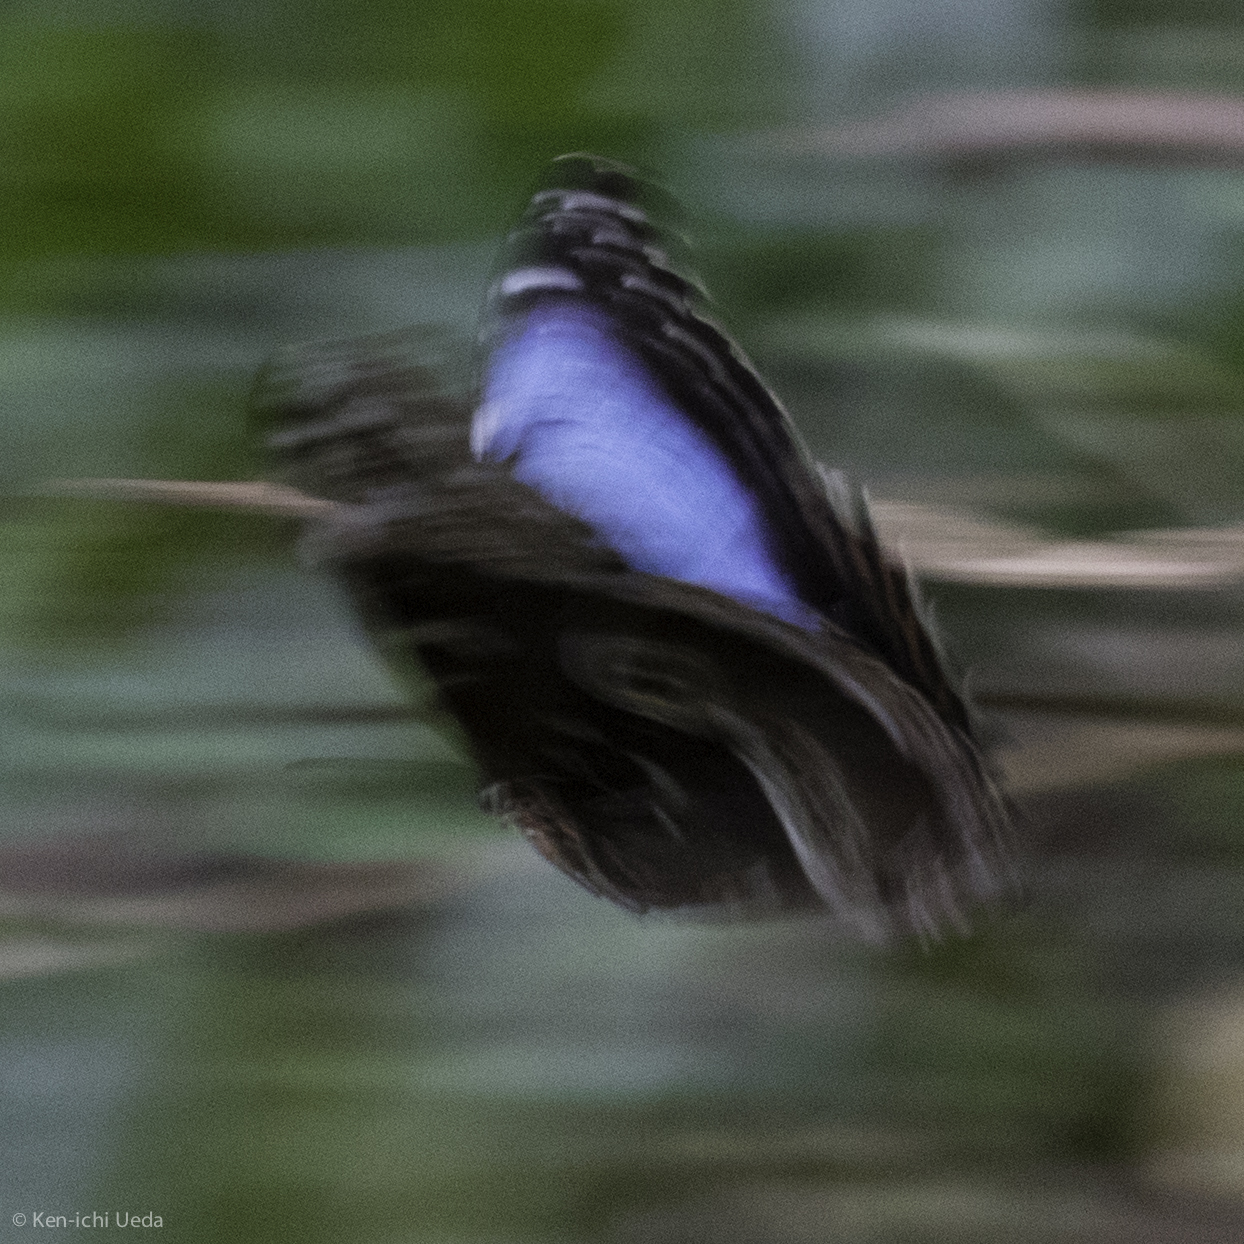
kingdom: Animalia
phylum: Arthropoda
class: Insecta
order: Lepidoptera
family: Nymphalidae
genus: Morpho
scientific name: Morpho helenor
